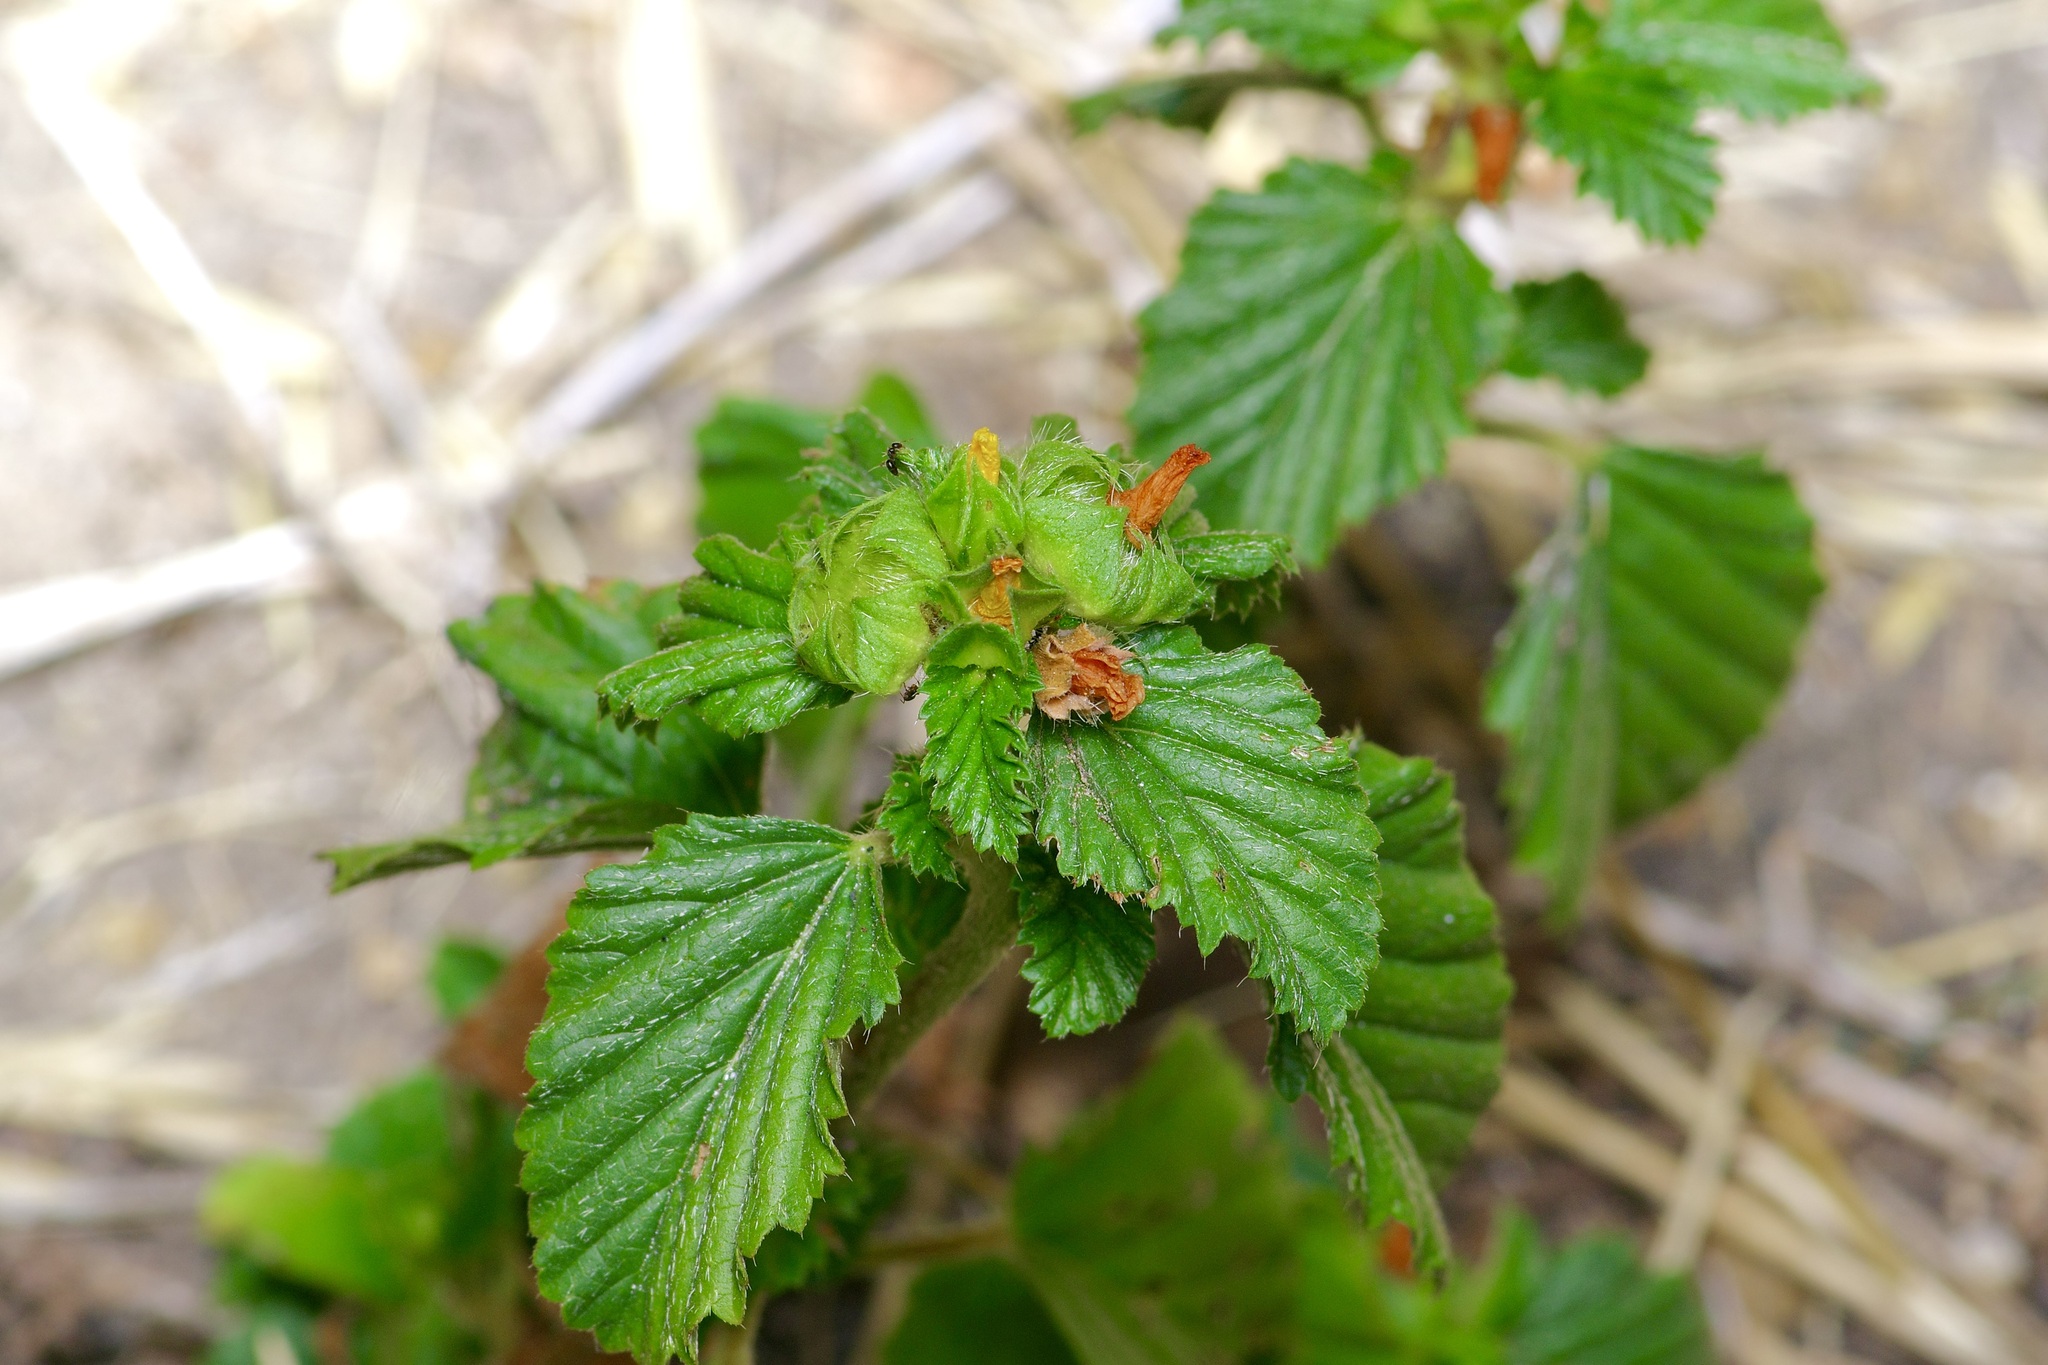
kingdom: Plantae
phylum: Tracheophyta
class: Magnoliopsida
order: Malvales
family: Malvaceae
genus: Malvastrum
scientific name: Malvastrum coromandelianum
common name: Threelobe false mallow
